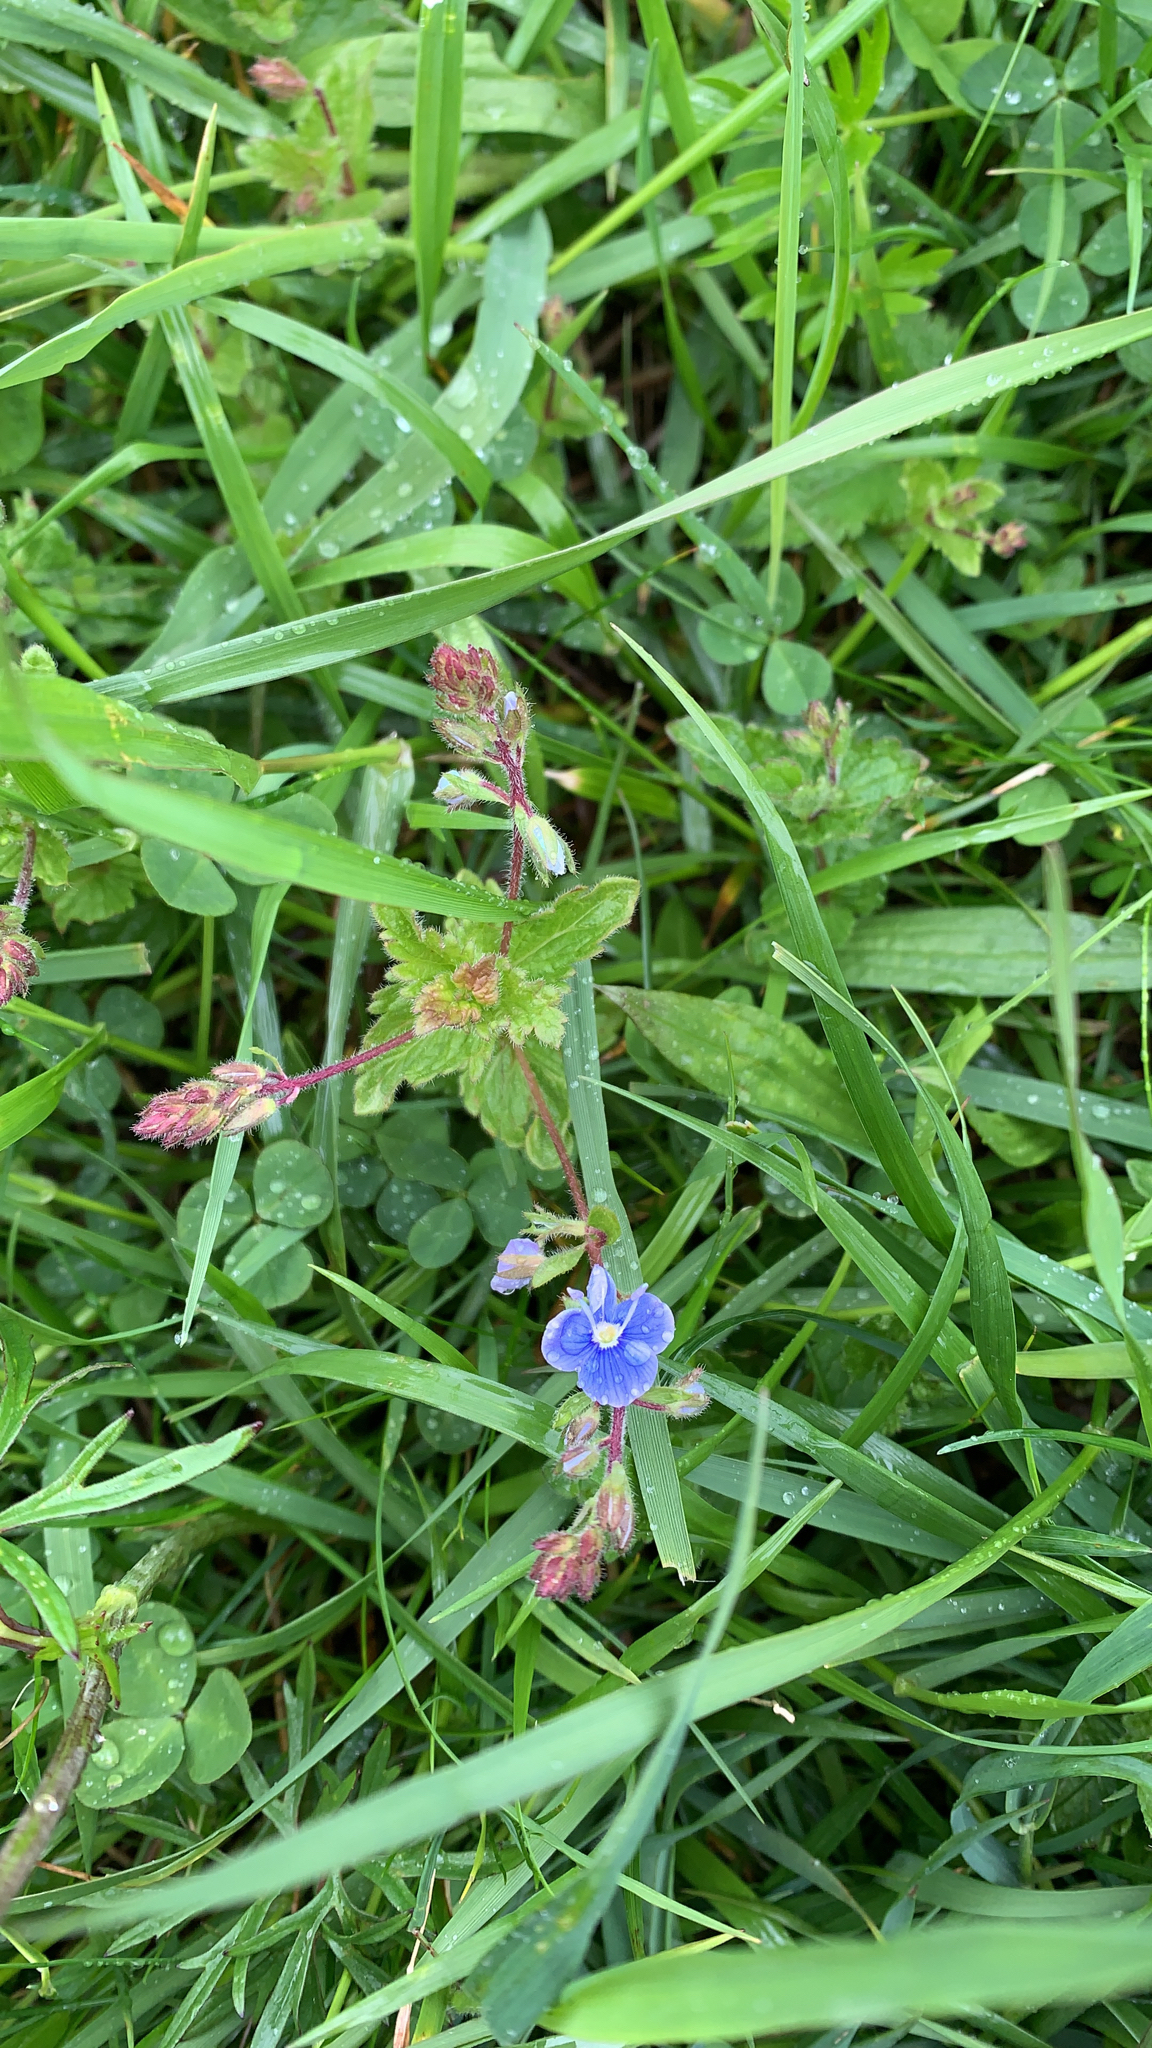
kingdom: Plantae
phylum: Tracheophyta
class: Magnoliopsida
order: Lamiales
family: Plantaginaceae
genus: Veronica
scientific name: Veronica chamaedrys
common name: Germander speedwell
